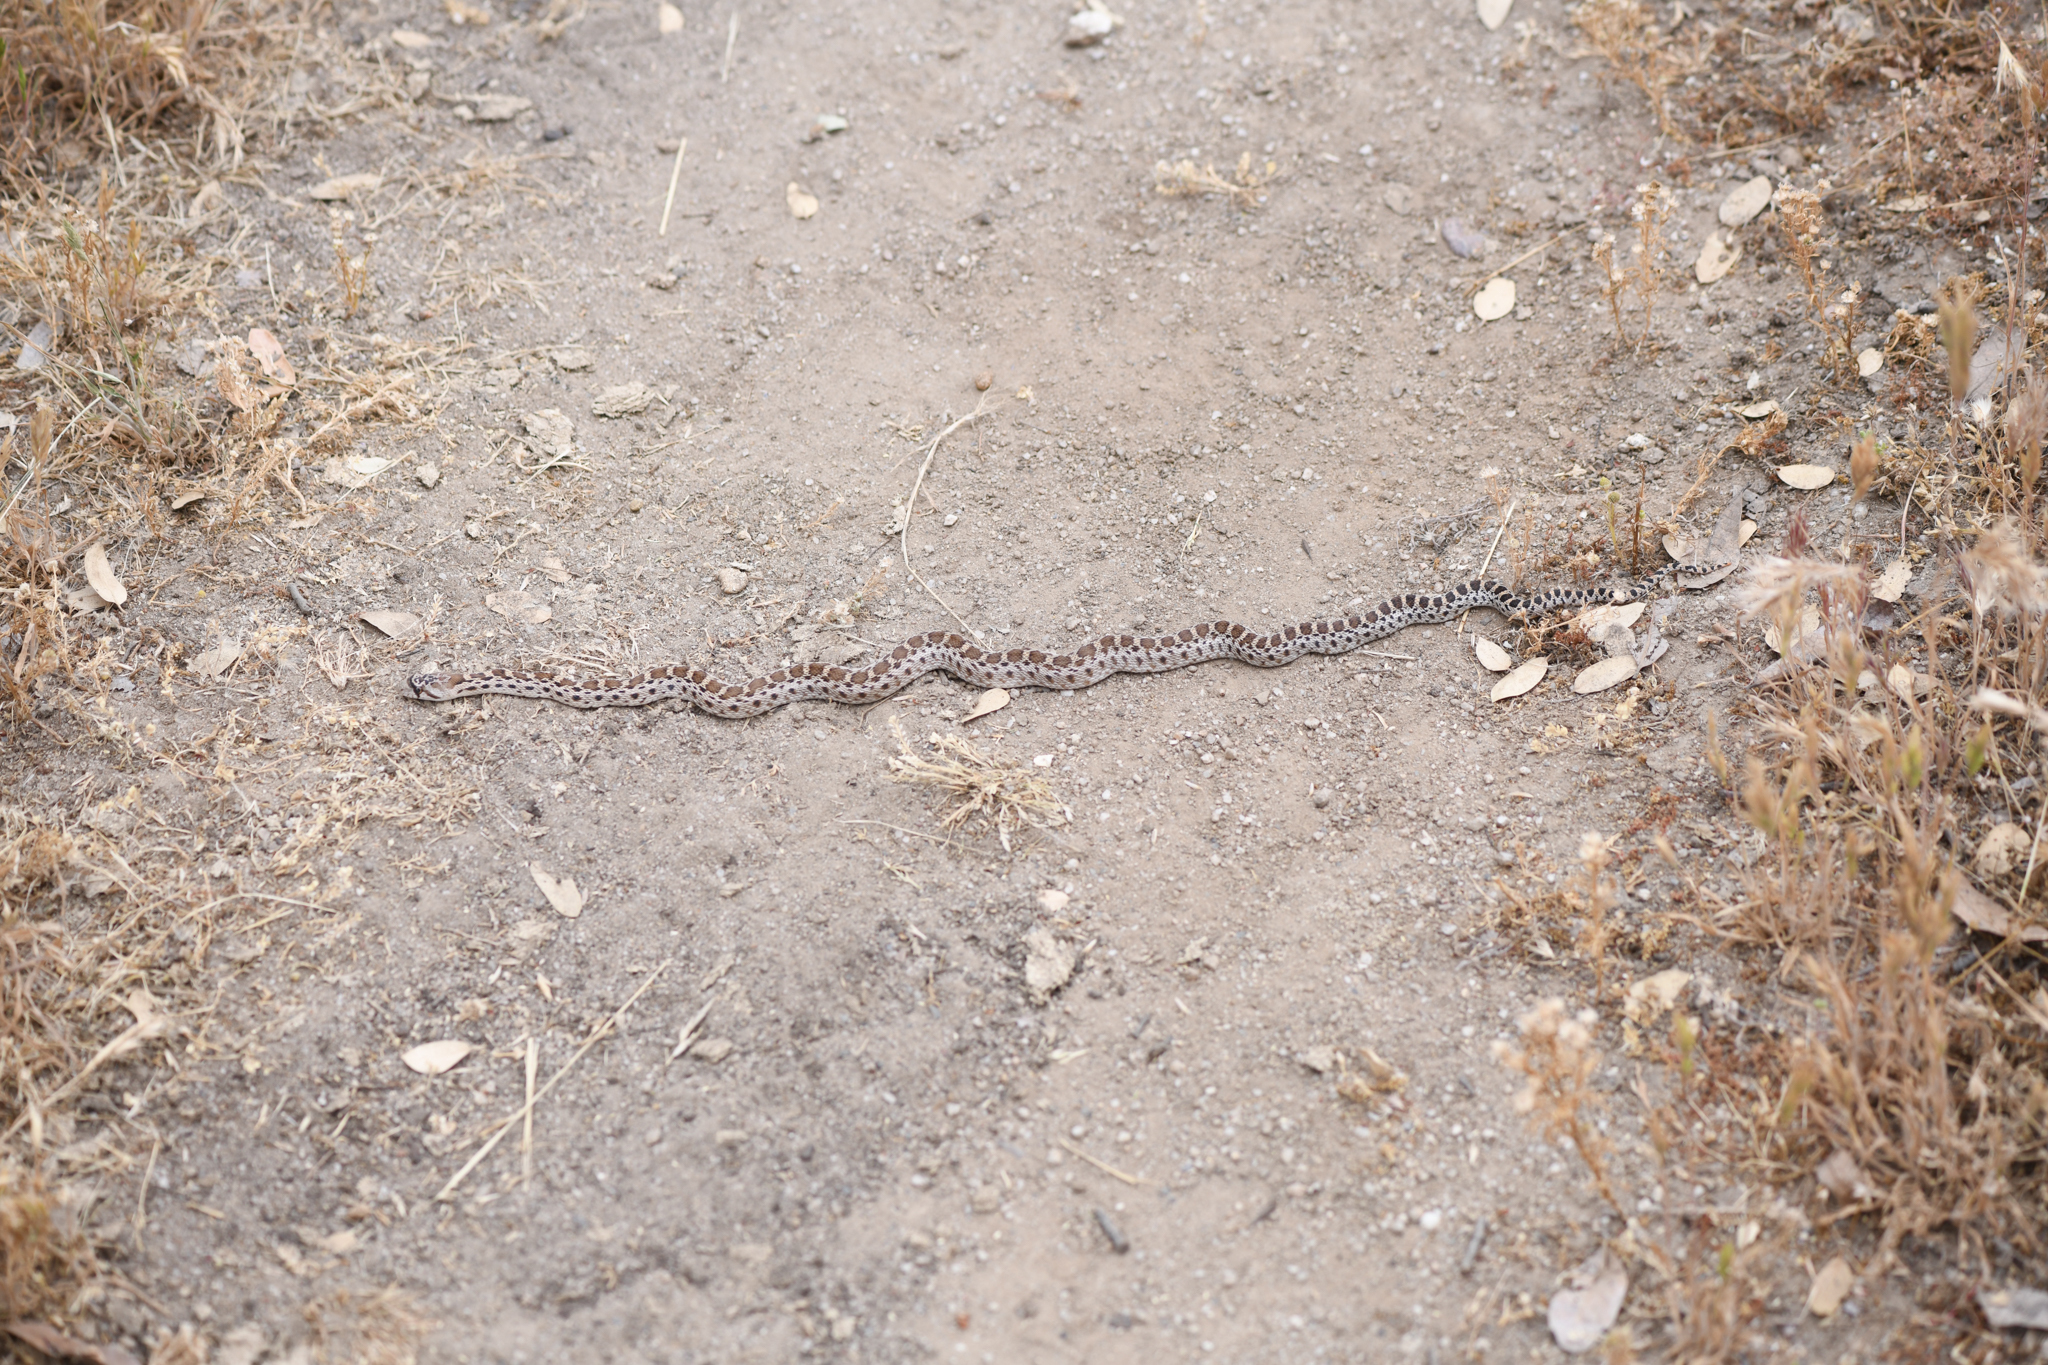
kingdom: Animalia
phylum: Chordata
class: Squamata
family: Colubridae
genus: Pituophis
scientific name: Pituophis catenifer
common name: Gopher snake
